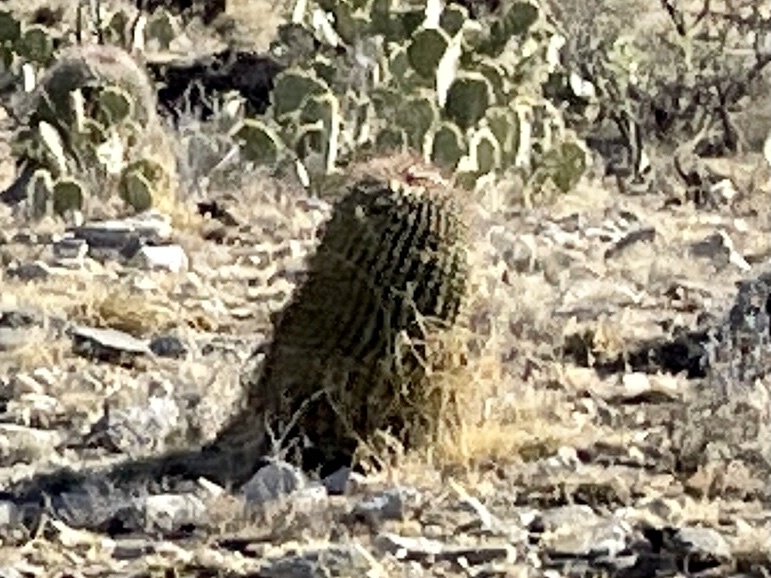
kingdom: Plantae
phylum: Tracheophyta
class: Magnoliopsida
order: Caryophyllales
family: Cactaceae
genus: Ferocactus
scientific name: Ferocactus wislizeni
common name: Candy barrel cactus
